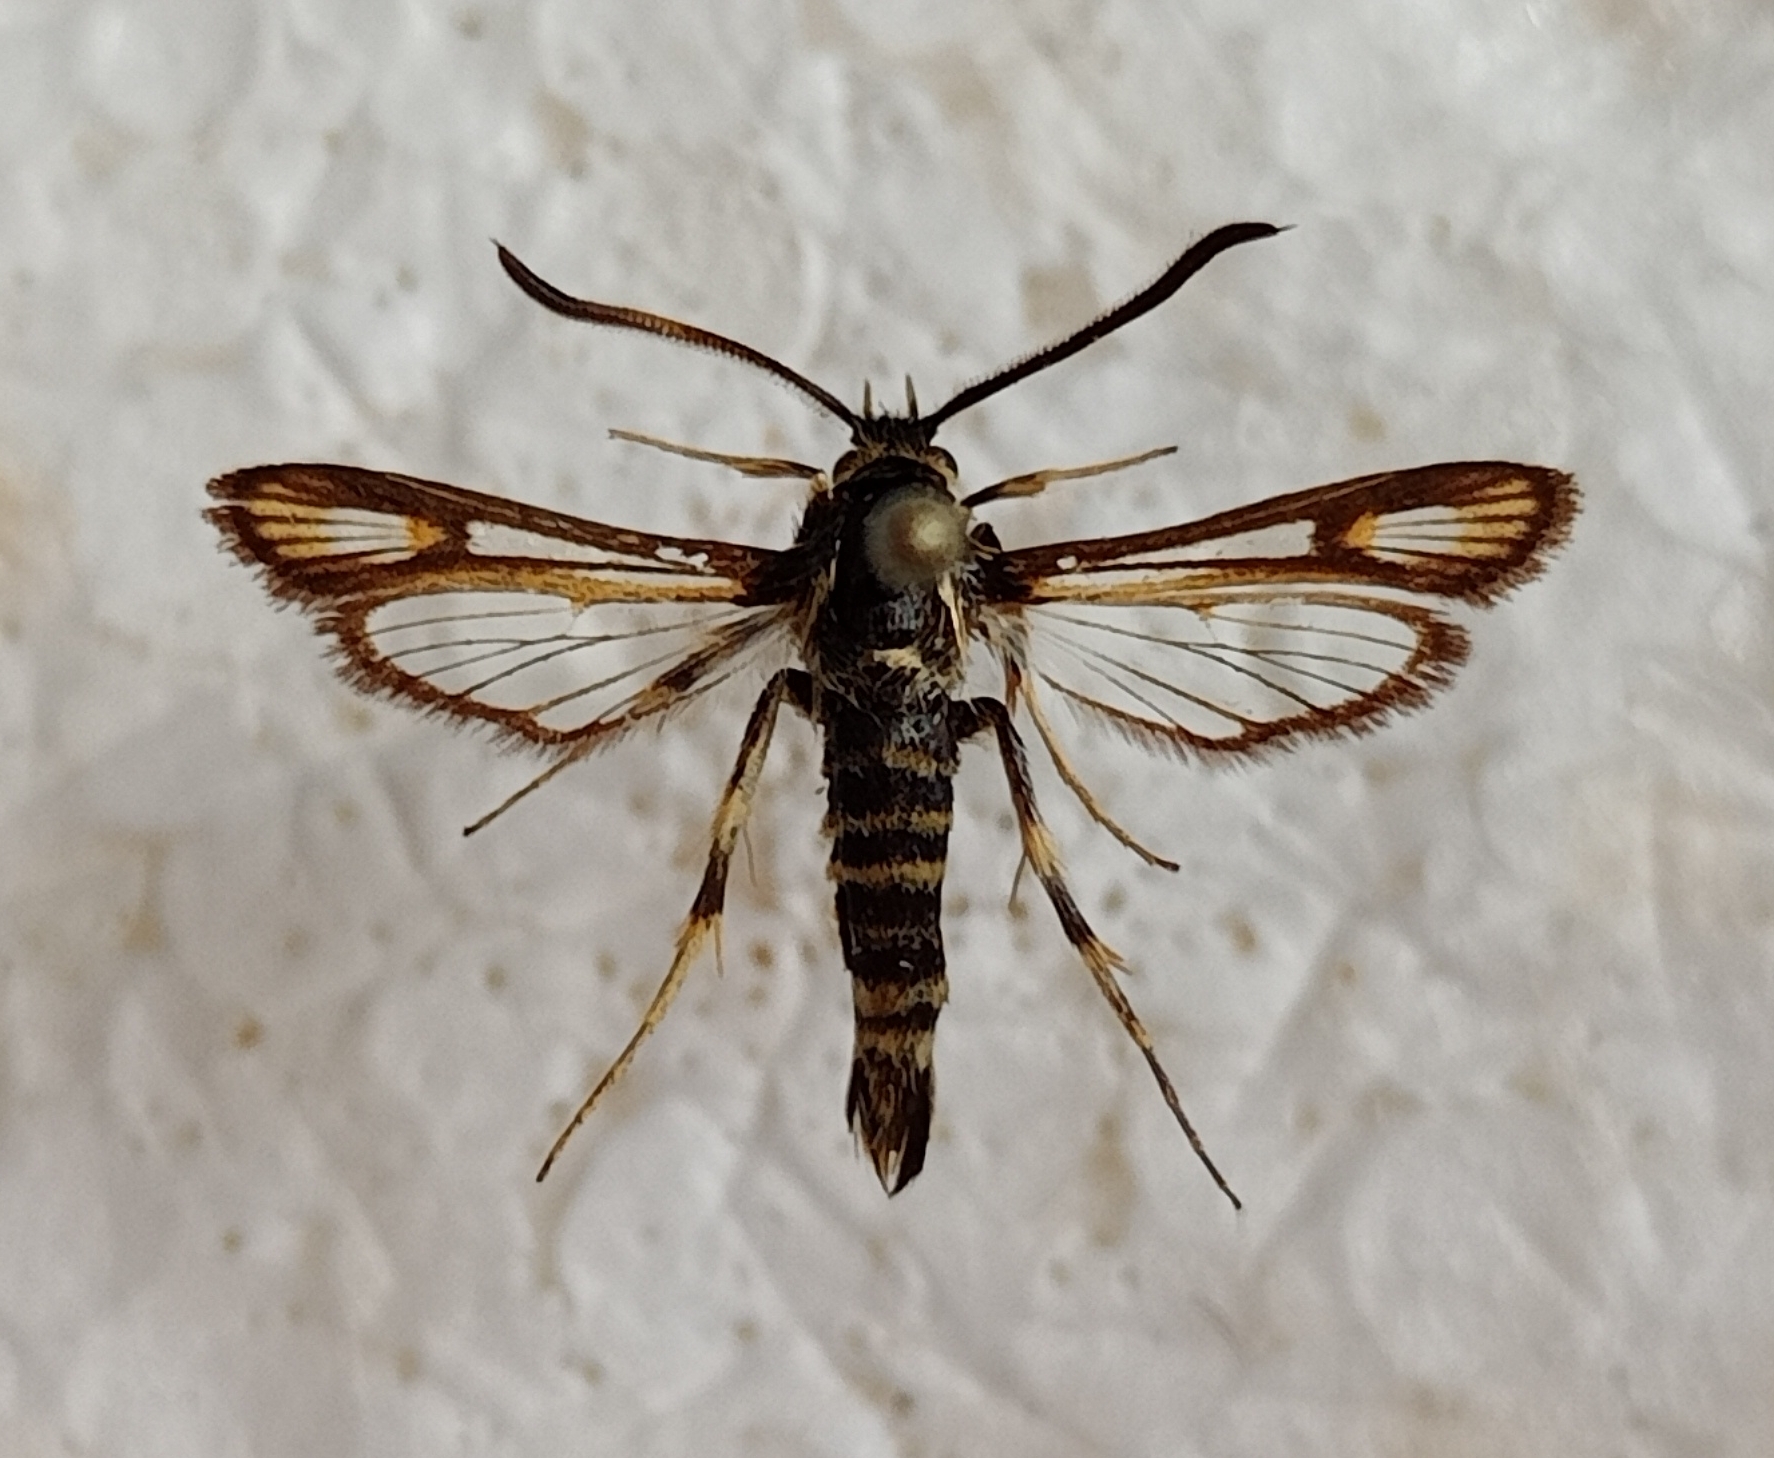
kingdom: Animalia
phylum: Arthropoda
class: Insecta
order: Lepidoptera
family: Sesiidae
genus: Bembecia
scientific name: Bembecia albanensis
